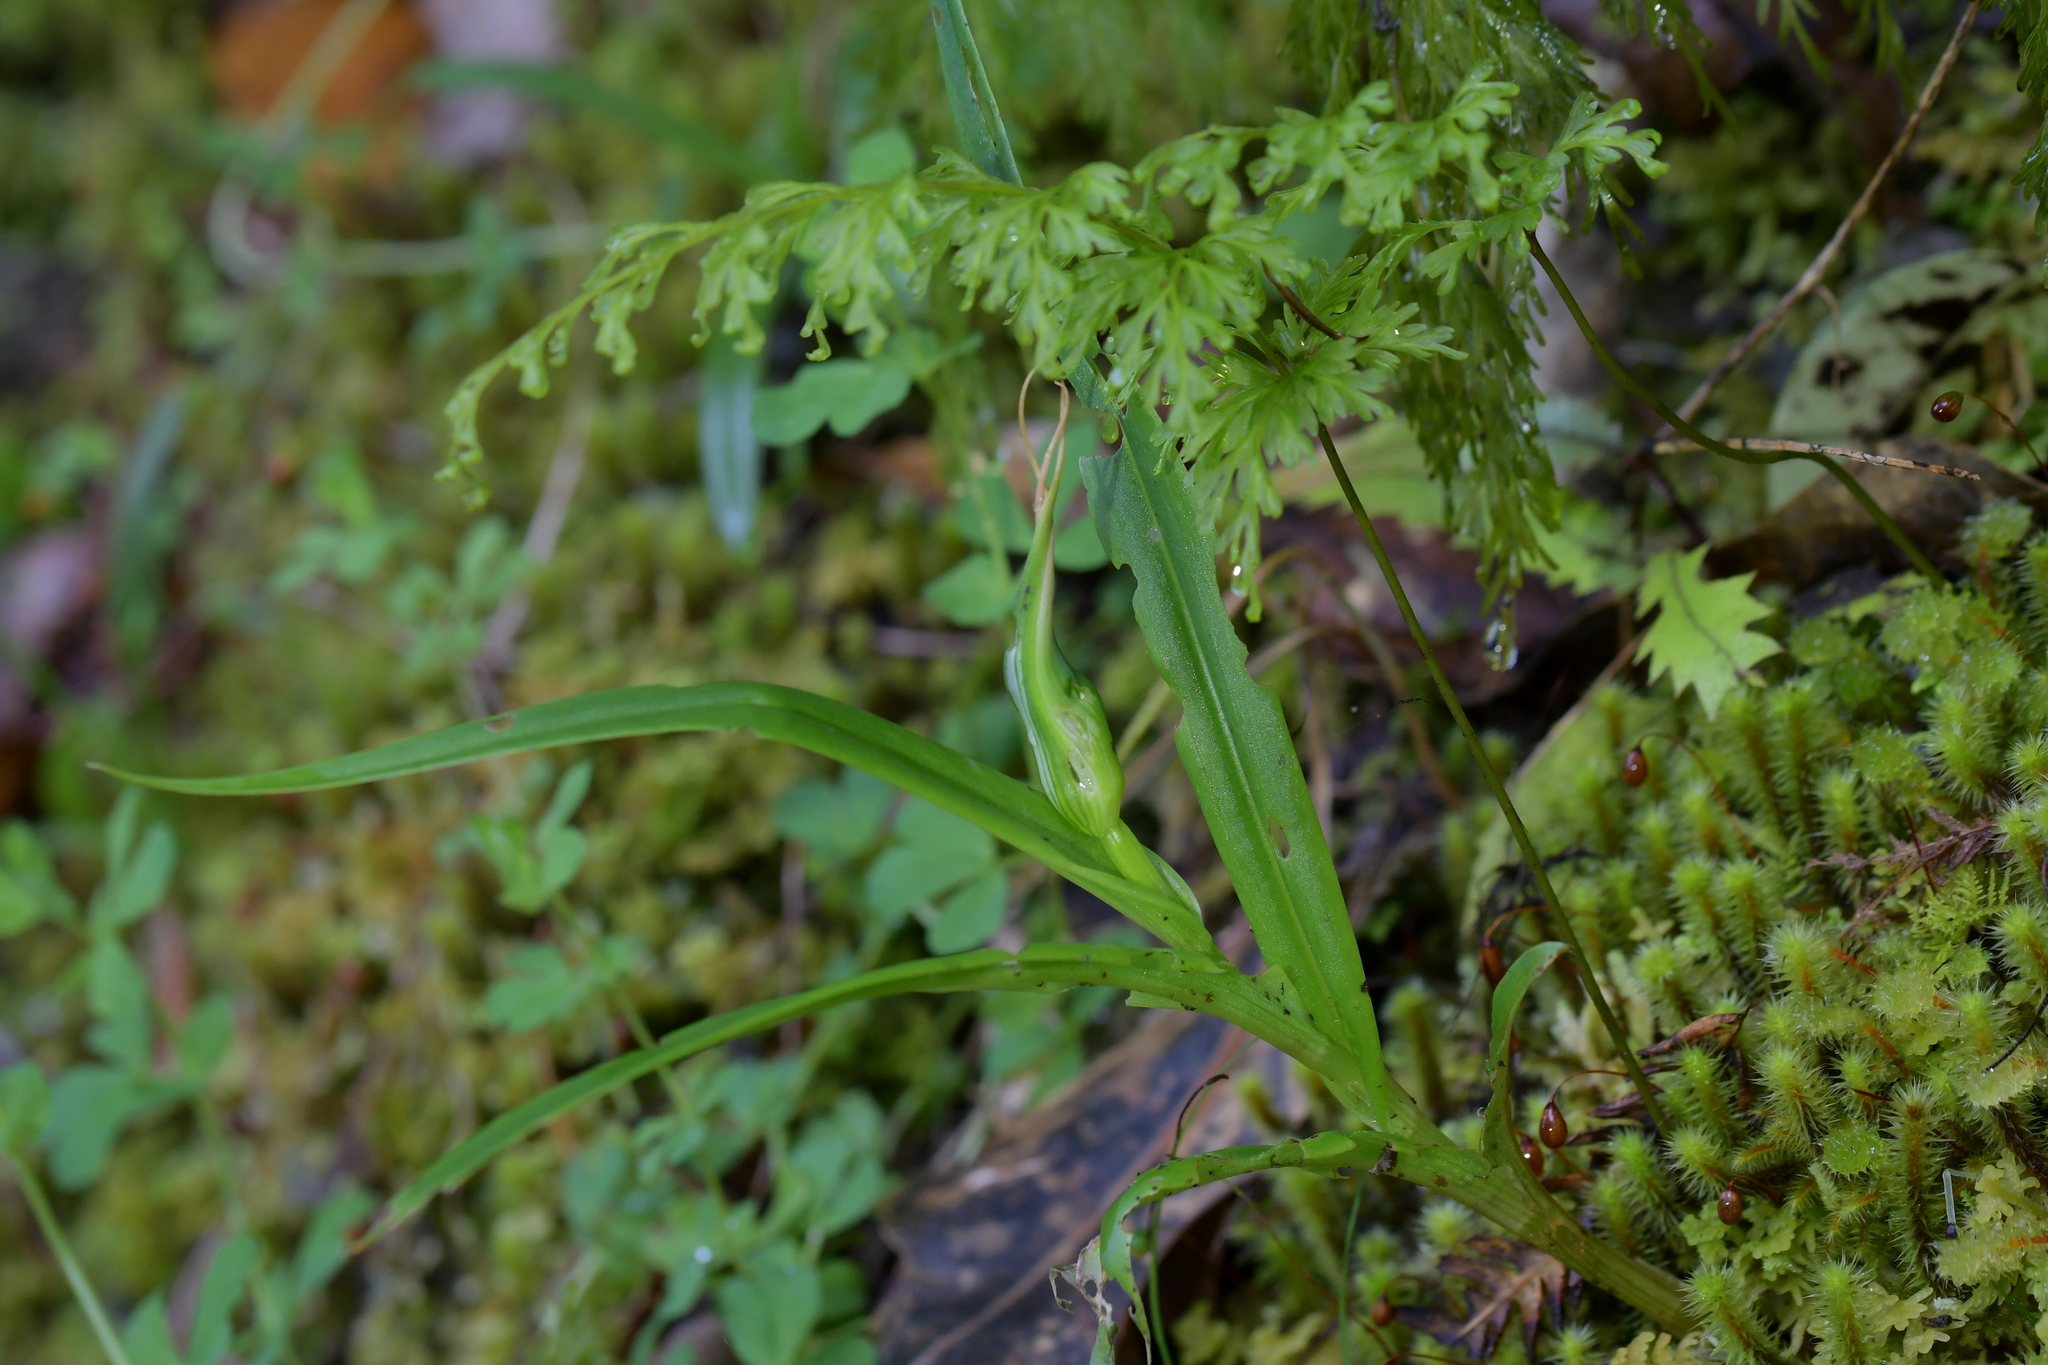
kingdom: Plantae
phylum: Tracheophyta
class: Liliopsida
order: Asparagales
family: Orchidaceae
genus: Pterostylis
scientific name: Pterostylis banksii
